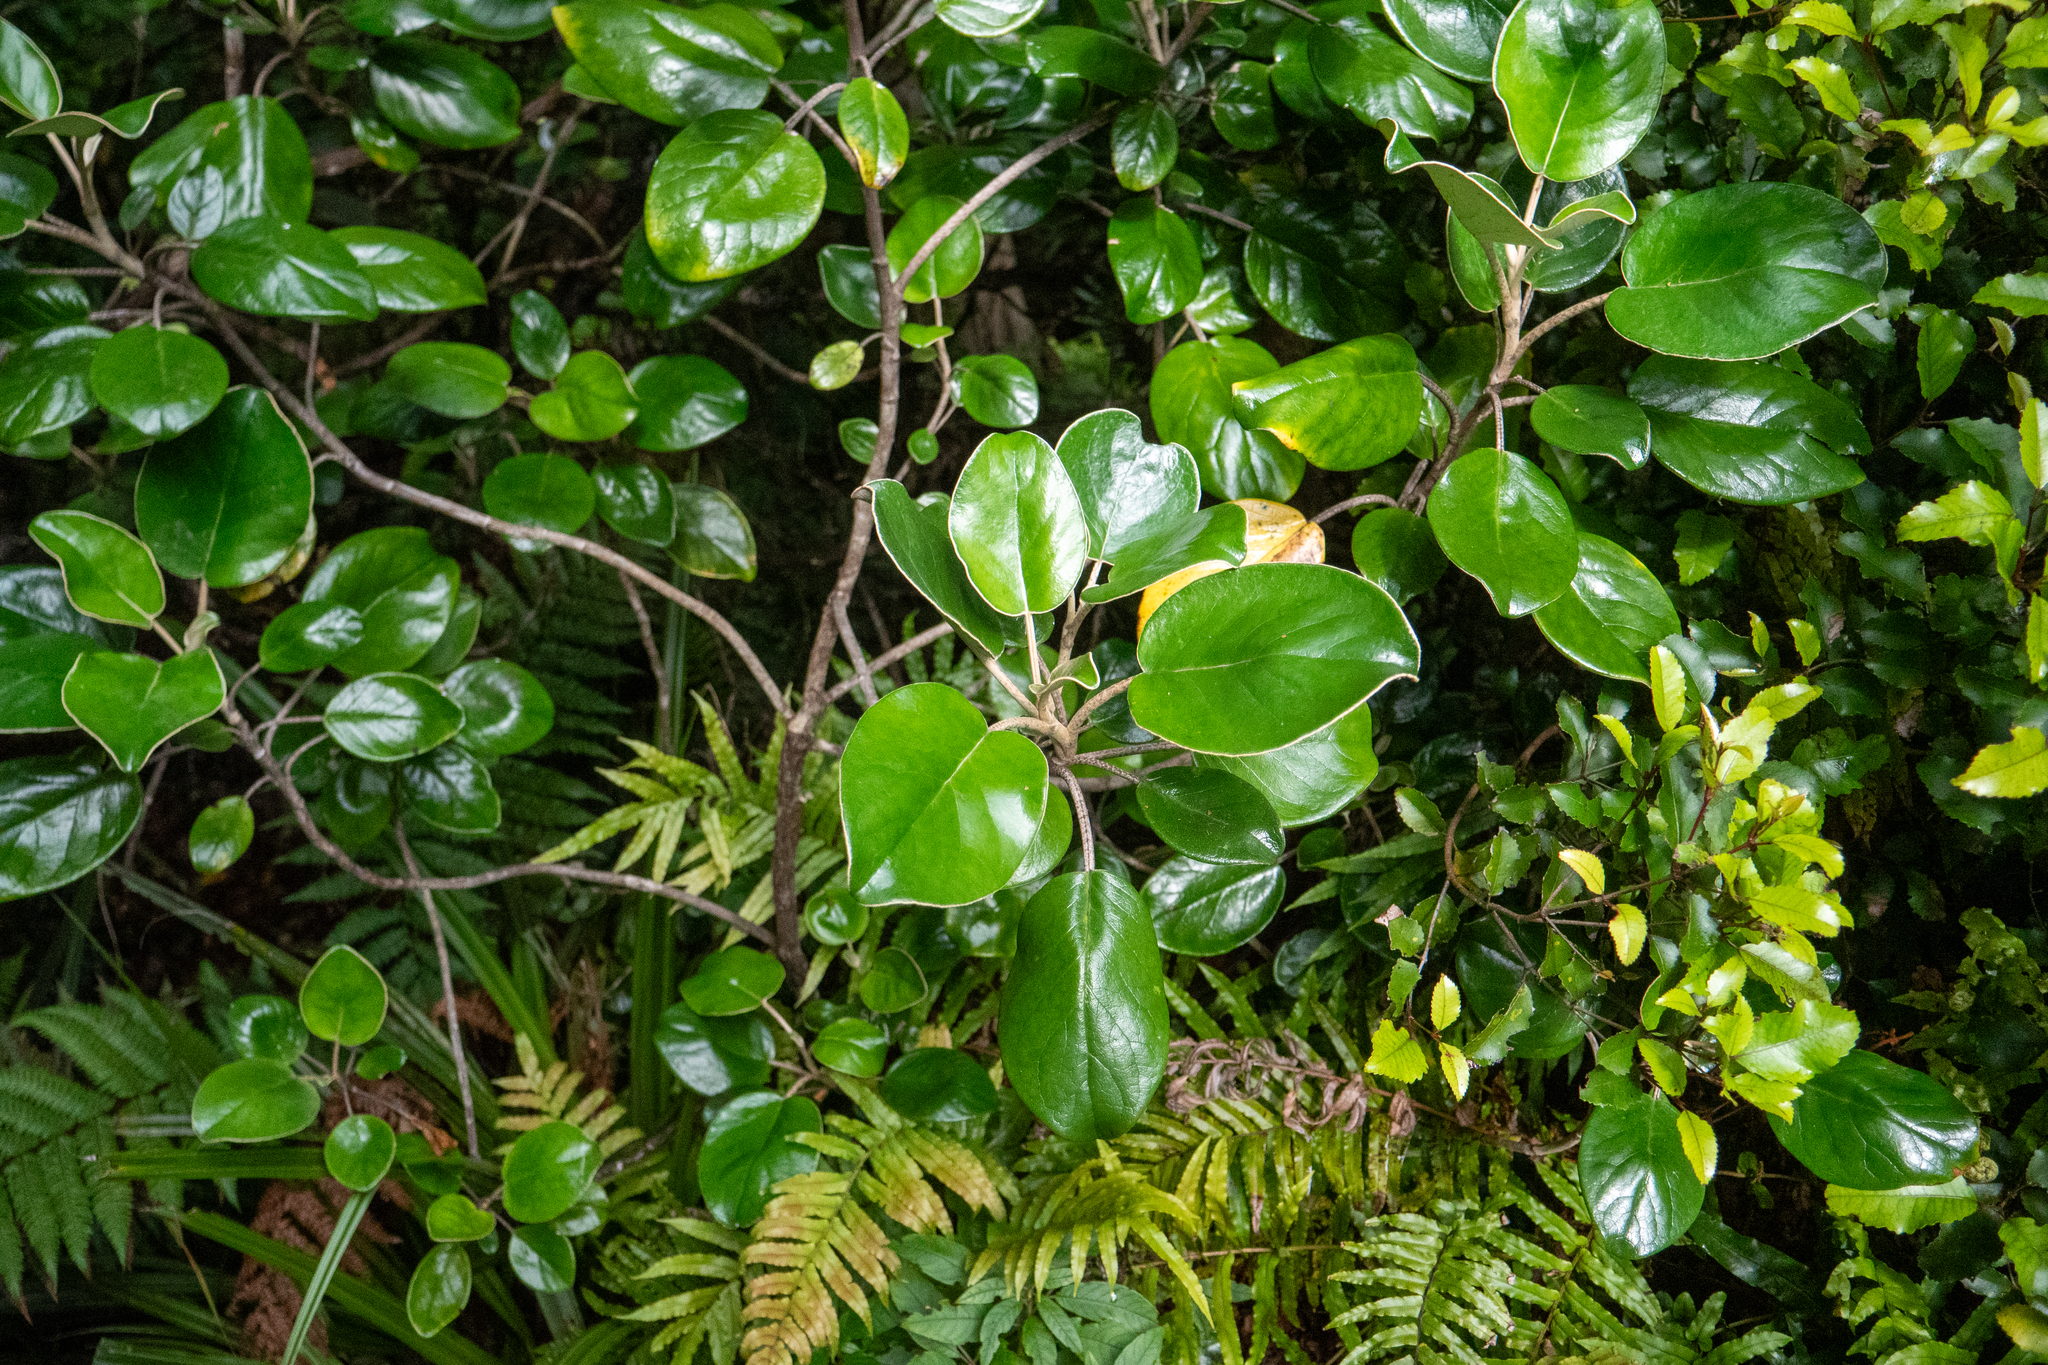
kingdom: Plantae
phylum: Tracheophyta
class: Magnoliopsida
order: Asterales
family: Asteraceae
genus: Brachyglottis
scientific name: Brachyglottis rotundifolia
